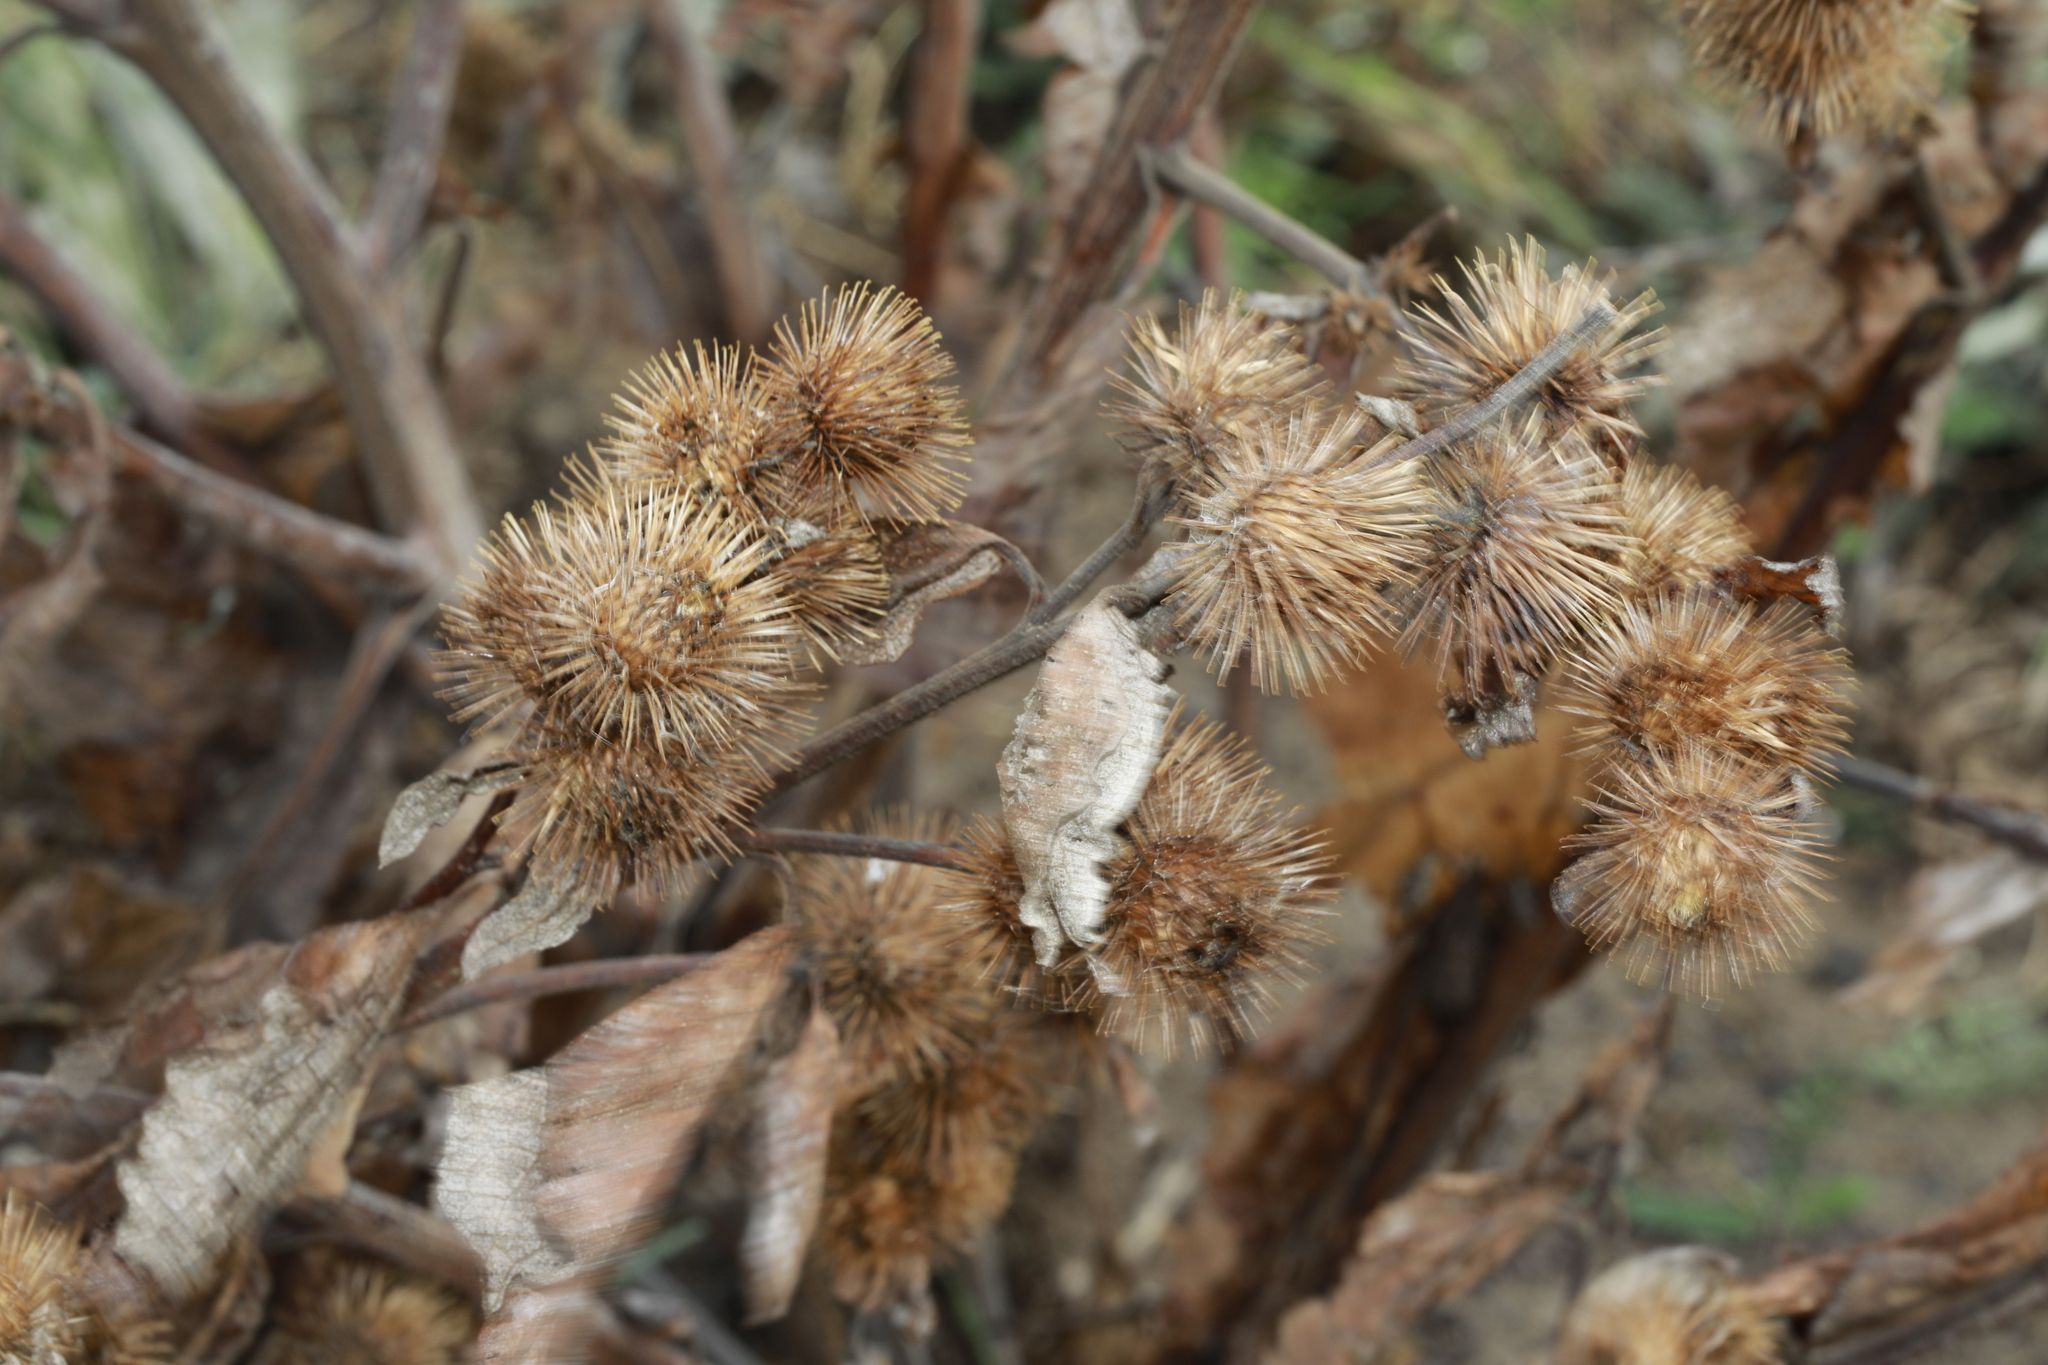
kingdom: Plantae
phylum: Tracheophyta
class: Magnoliopsida
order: Asterales
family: Asteraceae
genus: Arctium
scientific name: Arctium minus
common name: Lesser burdock
